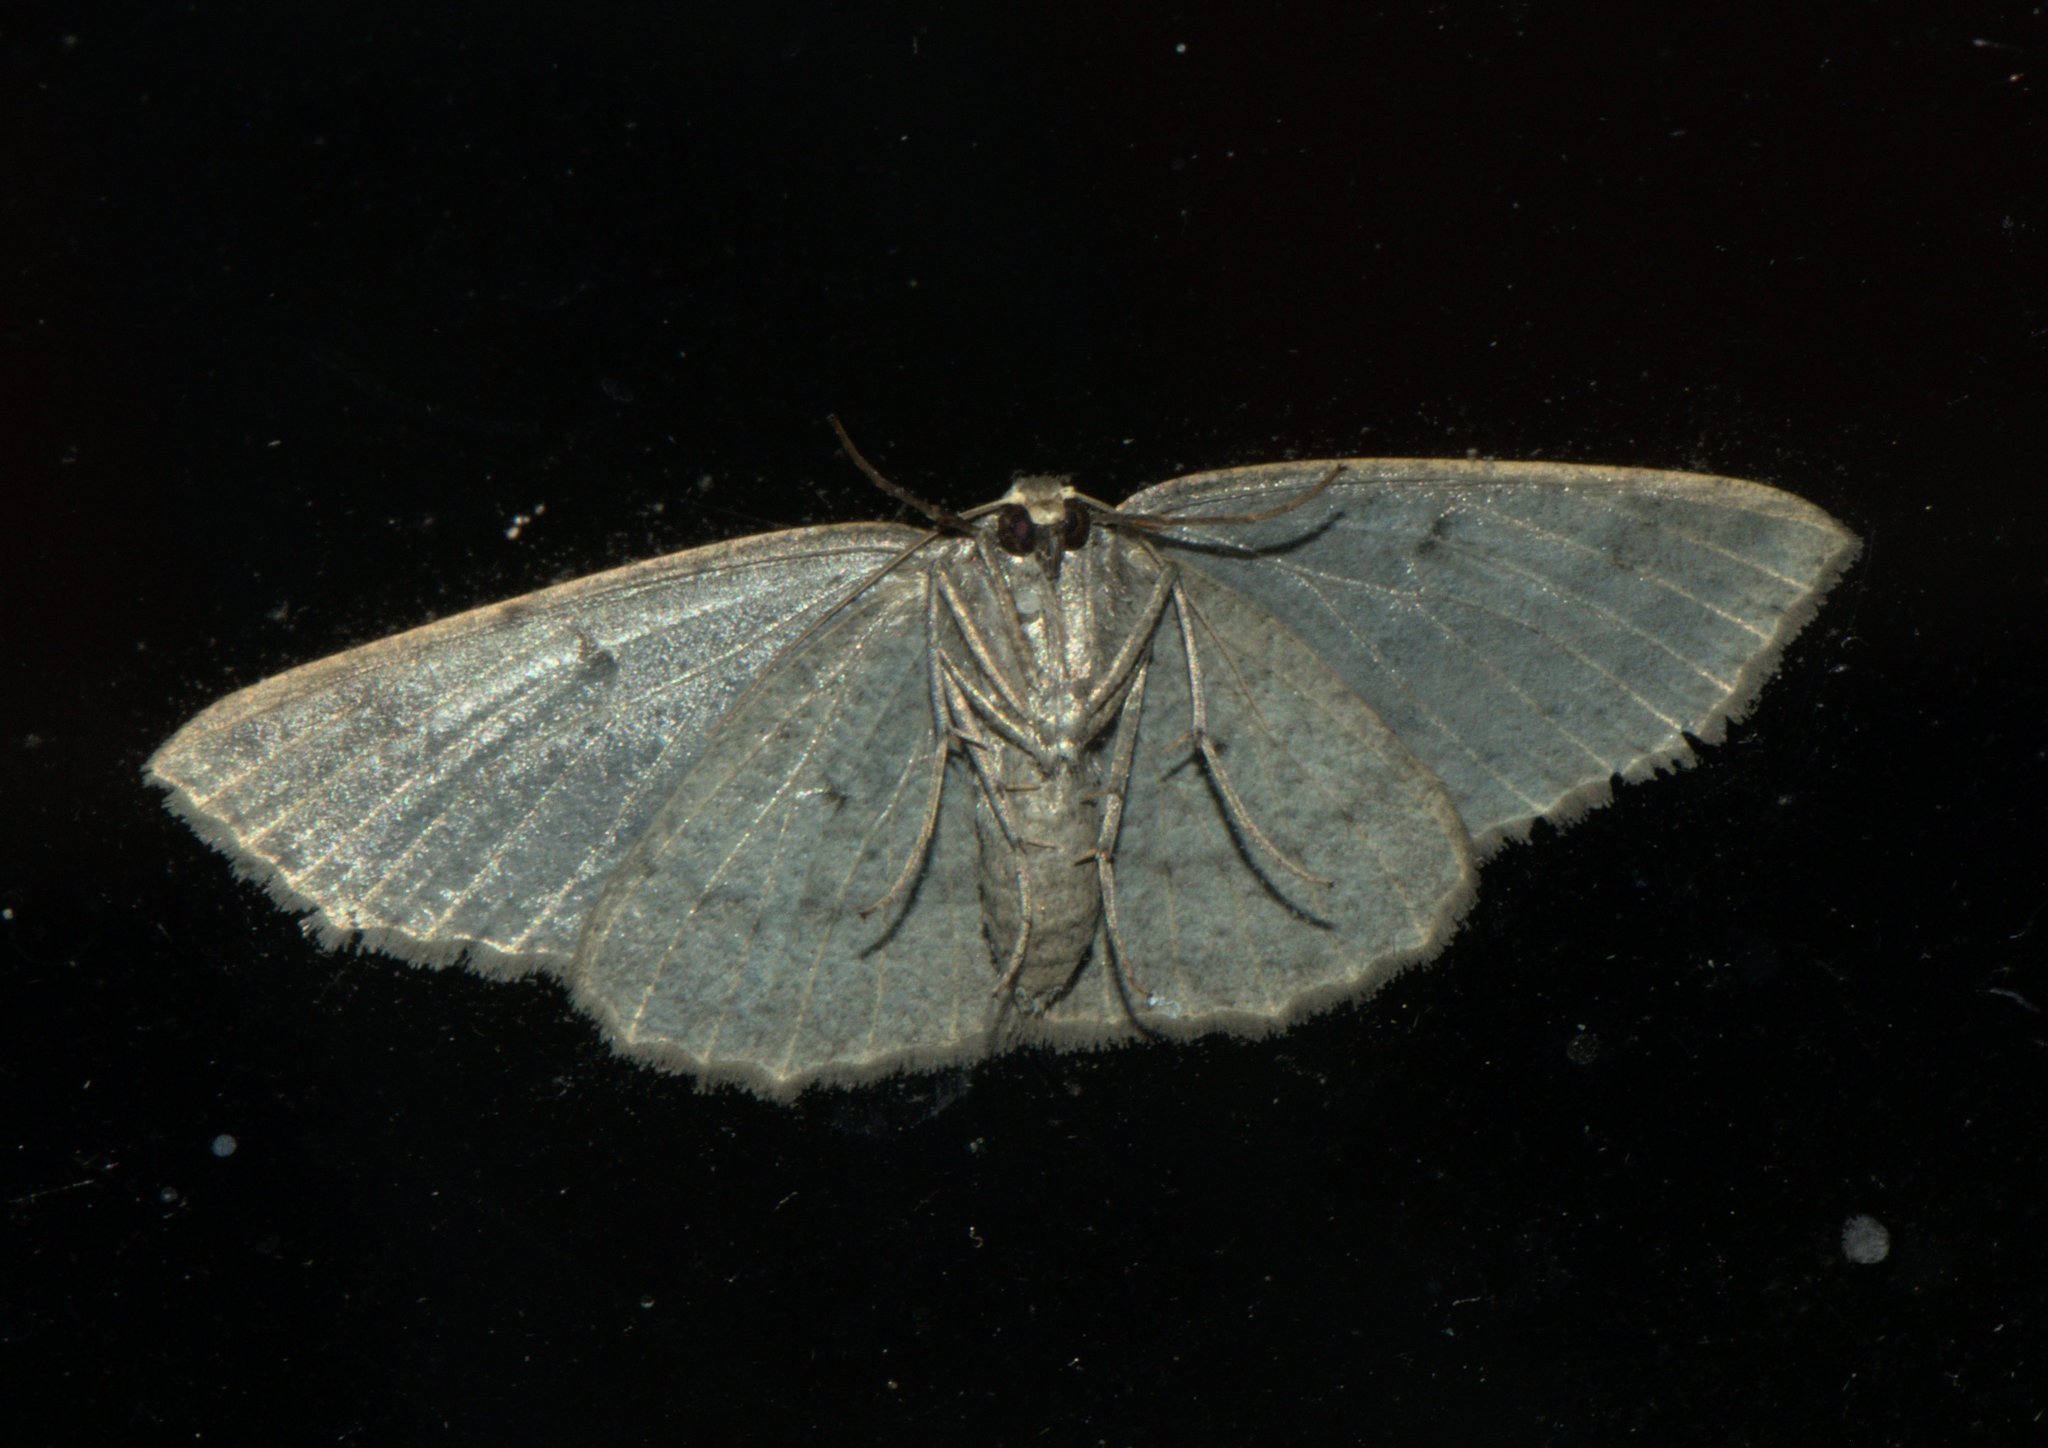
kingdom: Animalia
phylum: Arthropoda
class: Insecta
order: Lepidoptera
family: Geometridae
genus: Psyra
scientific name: Psyra angulifera
